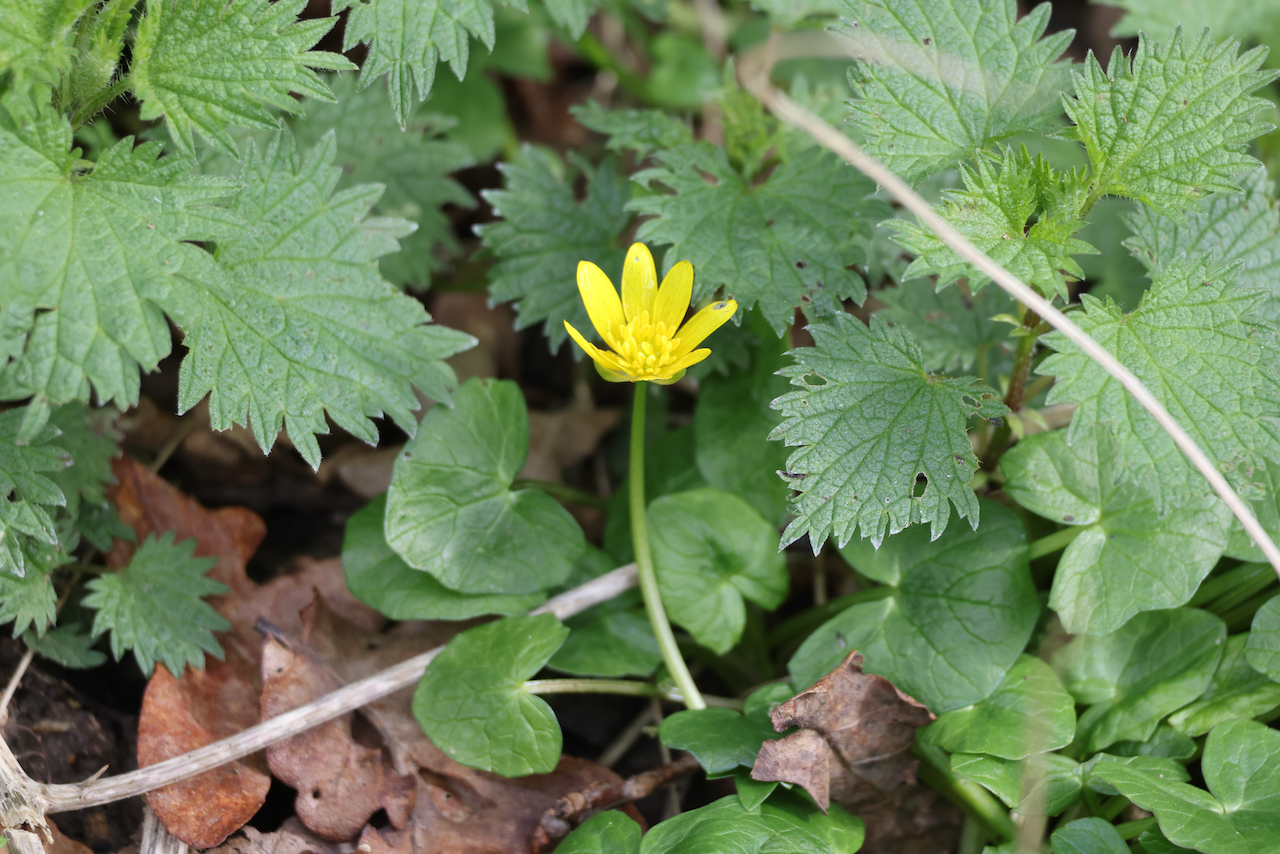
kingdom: Plantae
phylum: Tracheophyta
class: Magnoliopsida
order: Ranunculales
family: Ranunculaceae
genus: Ficaria
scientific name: Ficaria verna
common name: Lesser celandine
